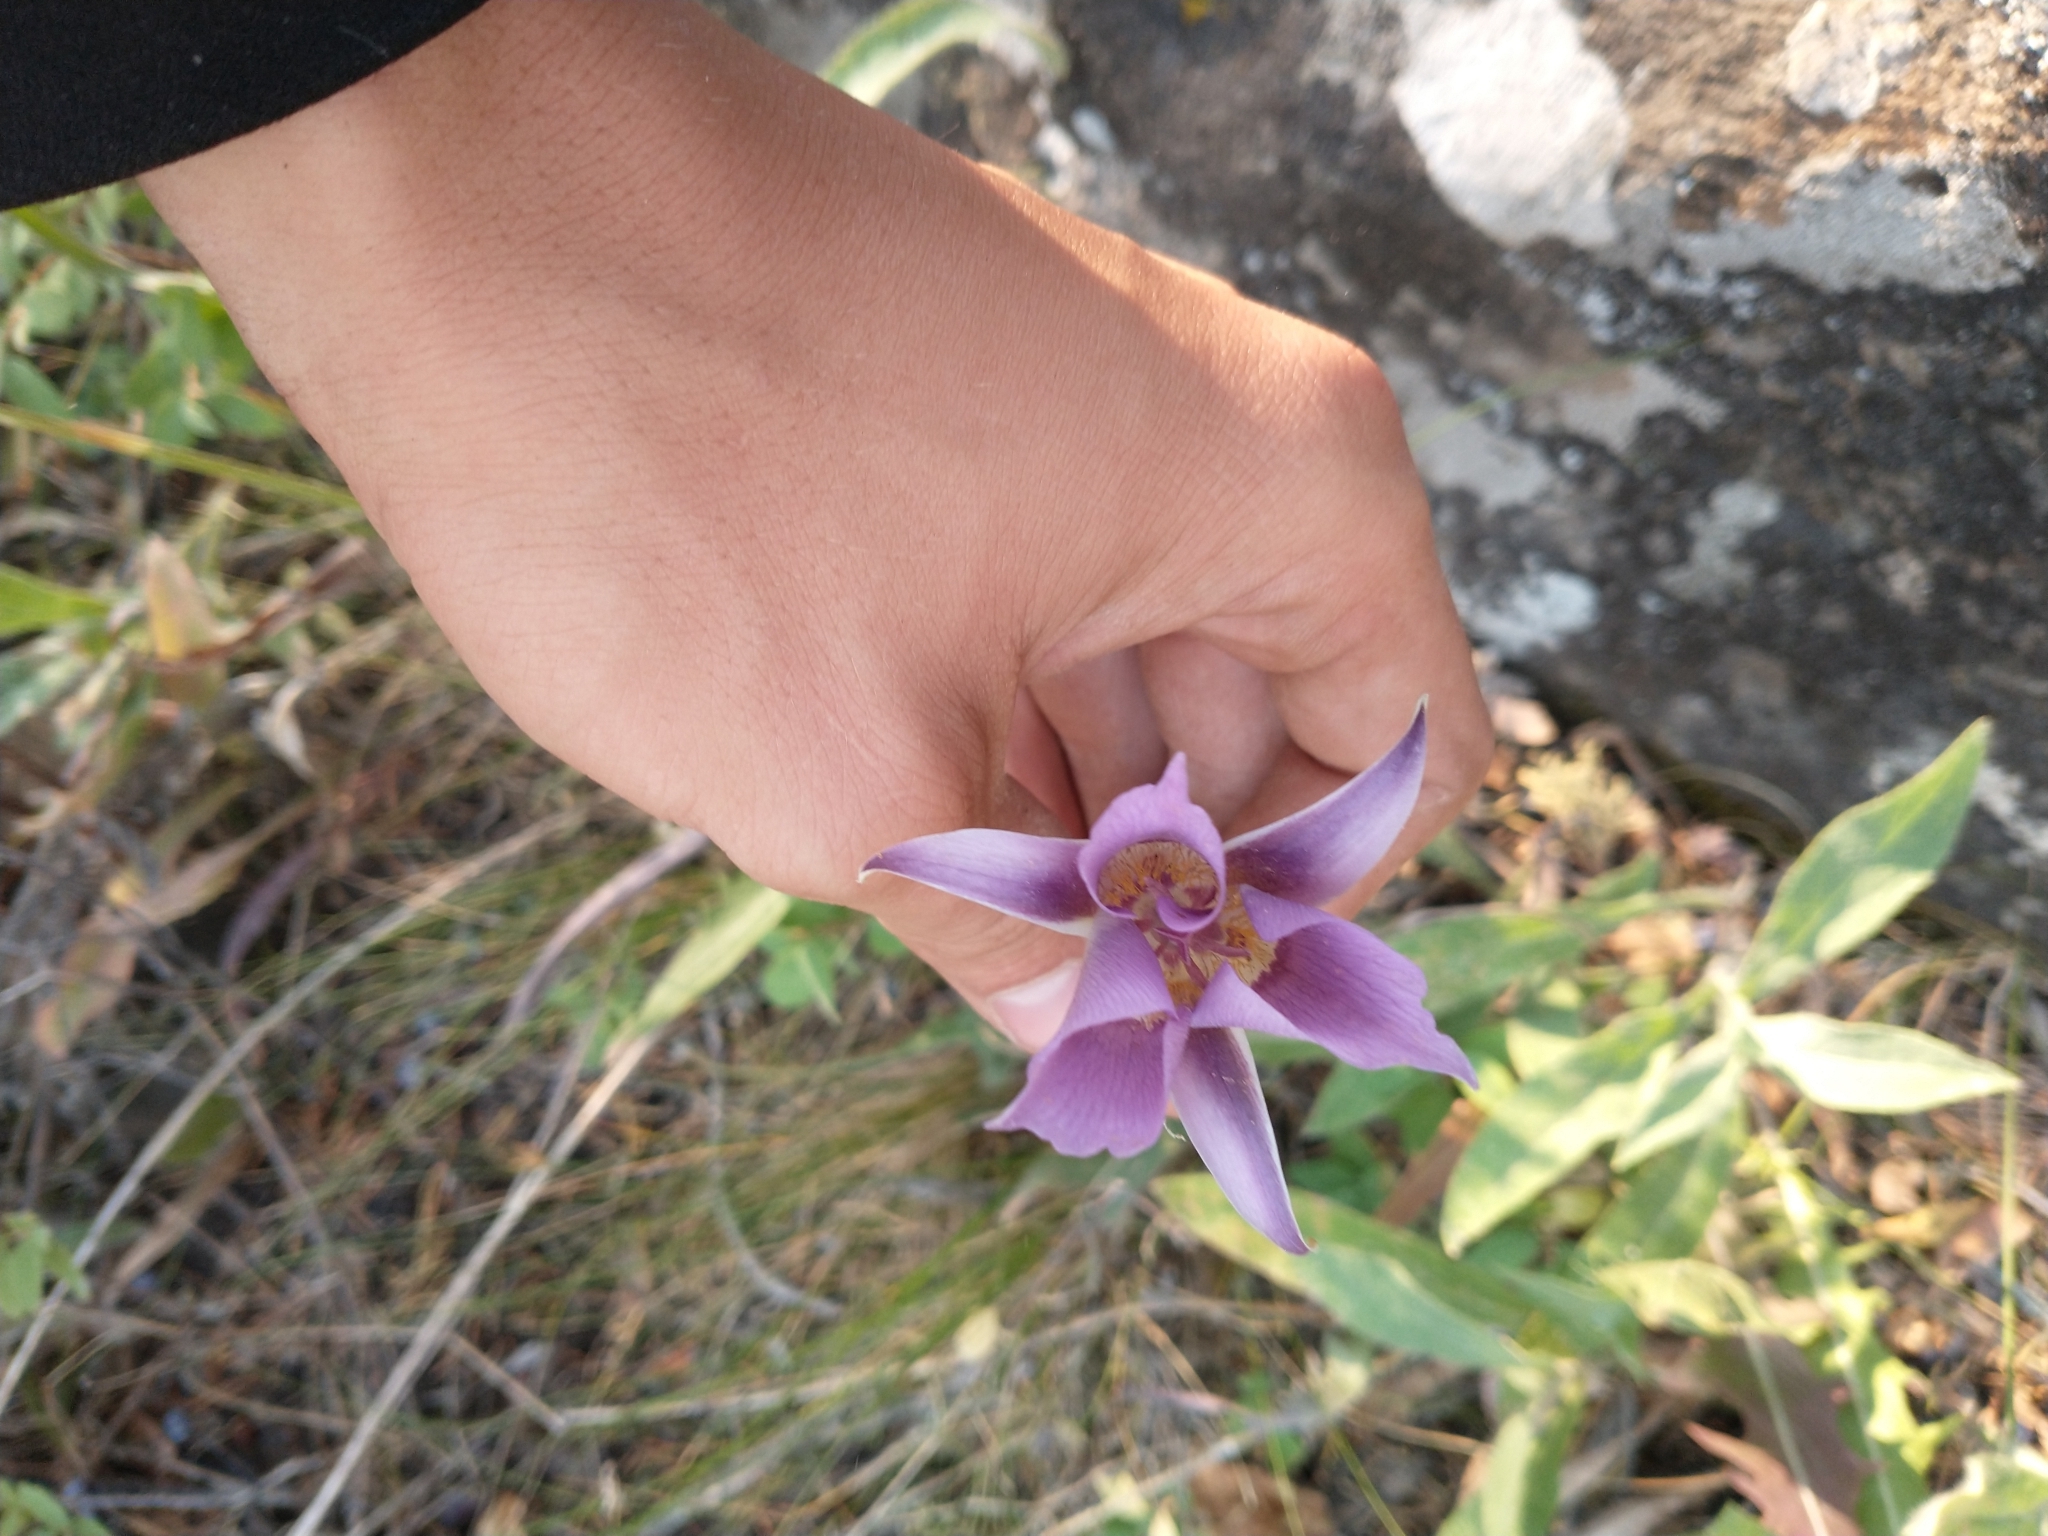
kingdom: Plantae
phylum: Tracheophyta
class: Liliopsida
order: Liliales
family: Liliaceae
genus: Calochortus
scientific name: Calochortus macrocarpus
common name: Green-band mariposa lily
